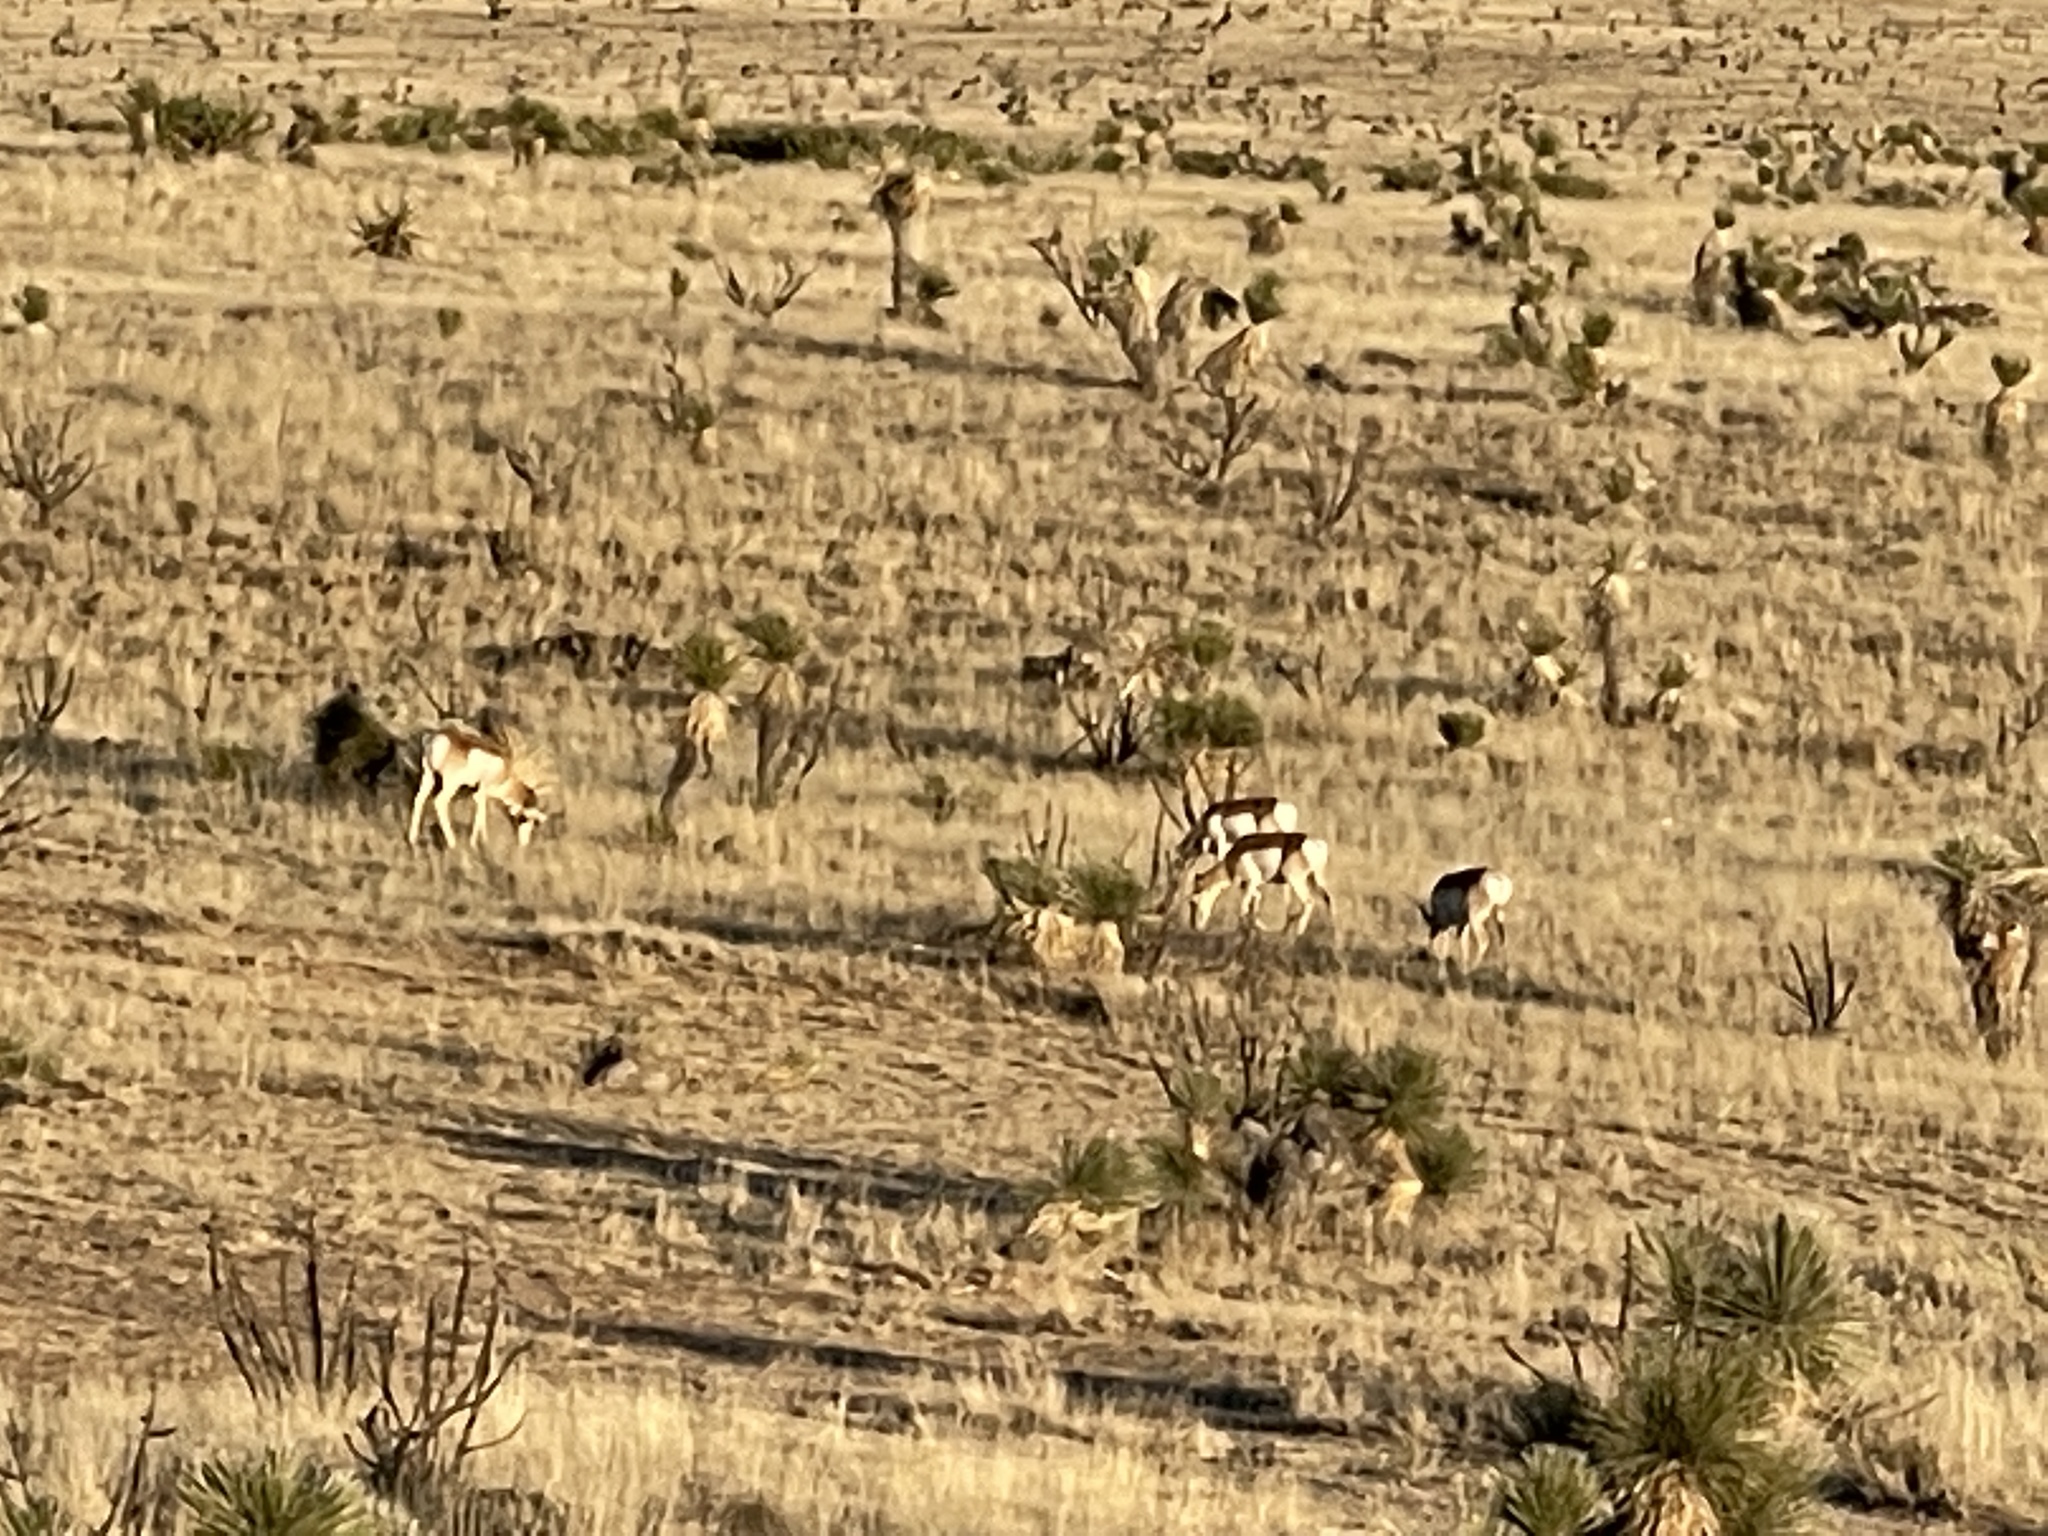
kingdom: Animalia
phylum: Chordata
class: Mammalia
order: Artiodactyla
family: Antilocapridae
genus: Antilocapra
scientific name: Antilocapra americana
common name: Pronghorn
